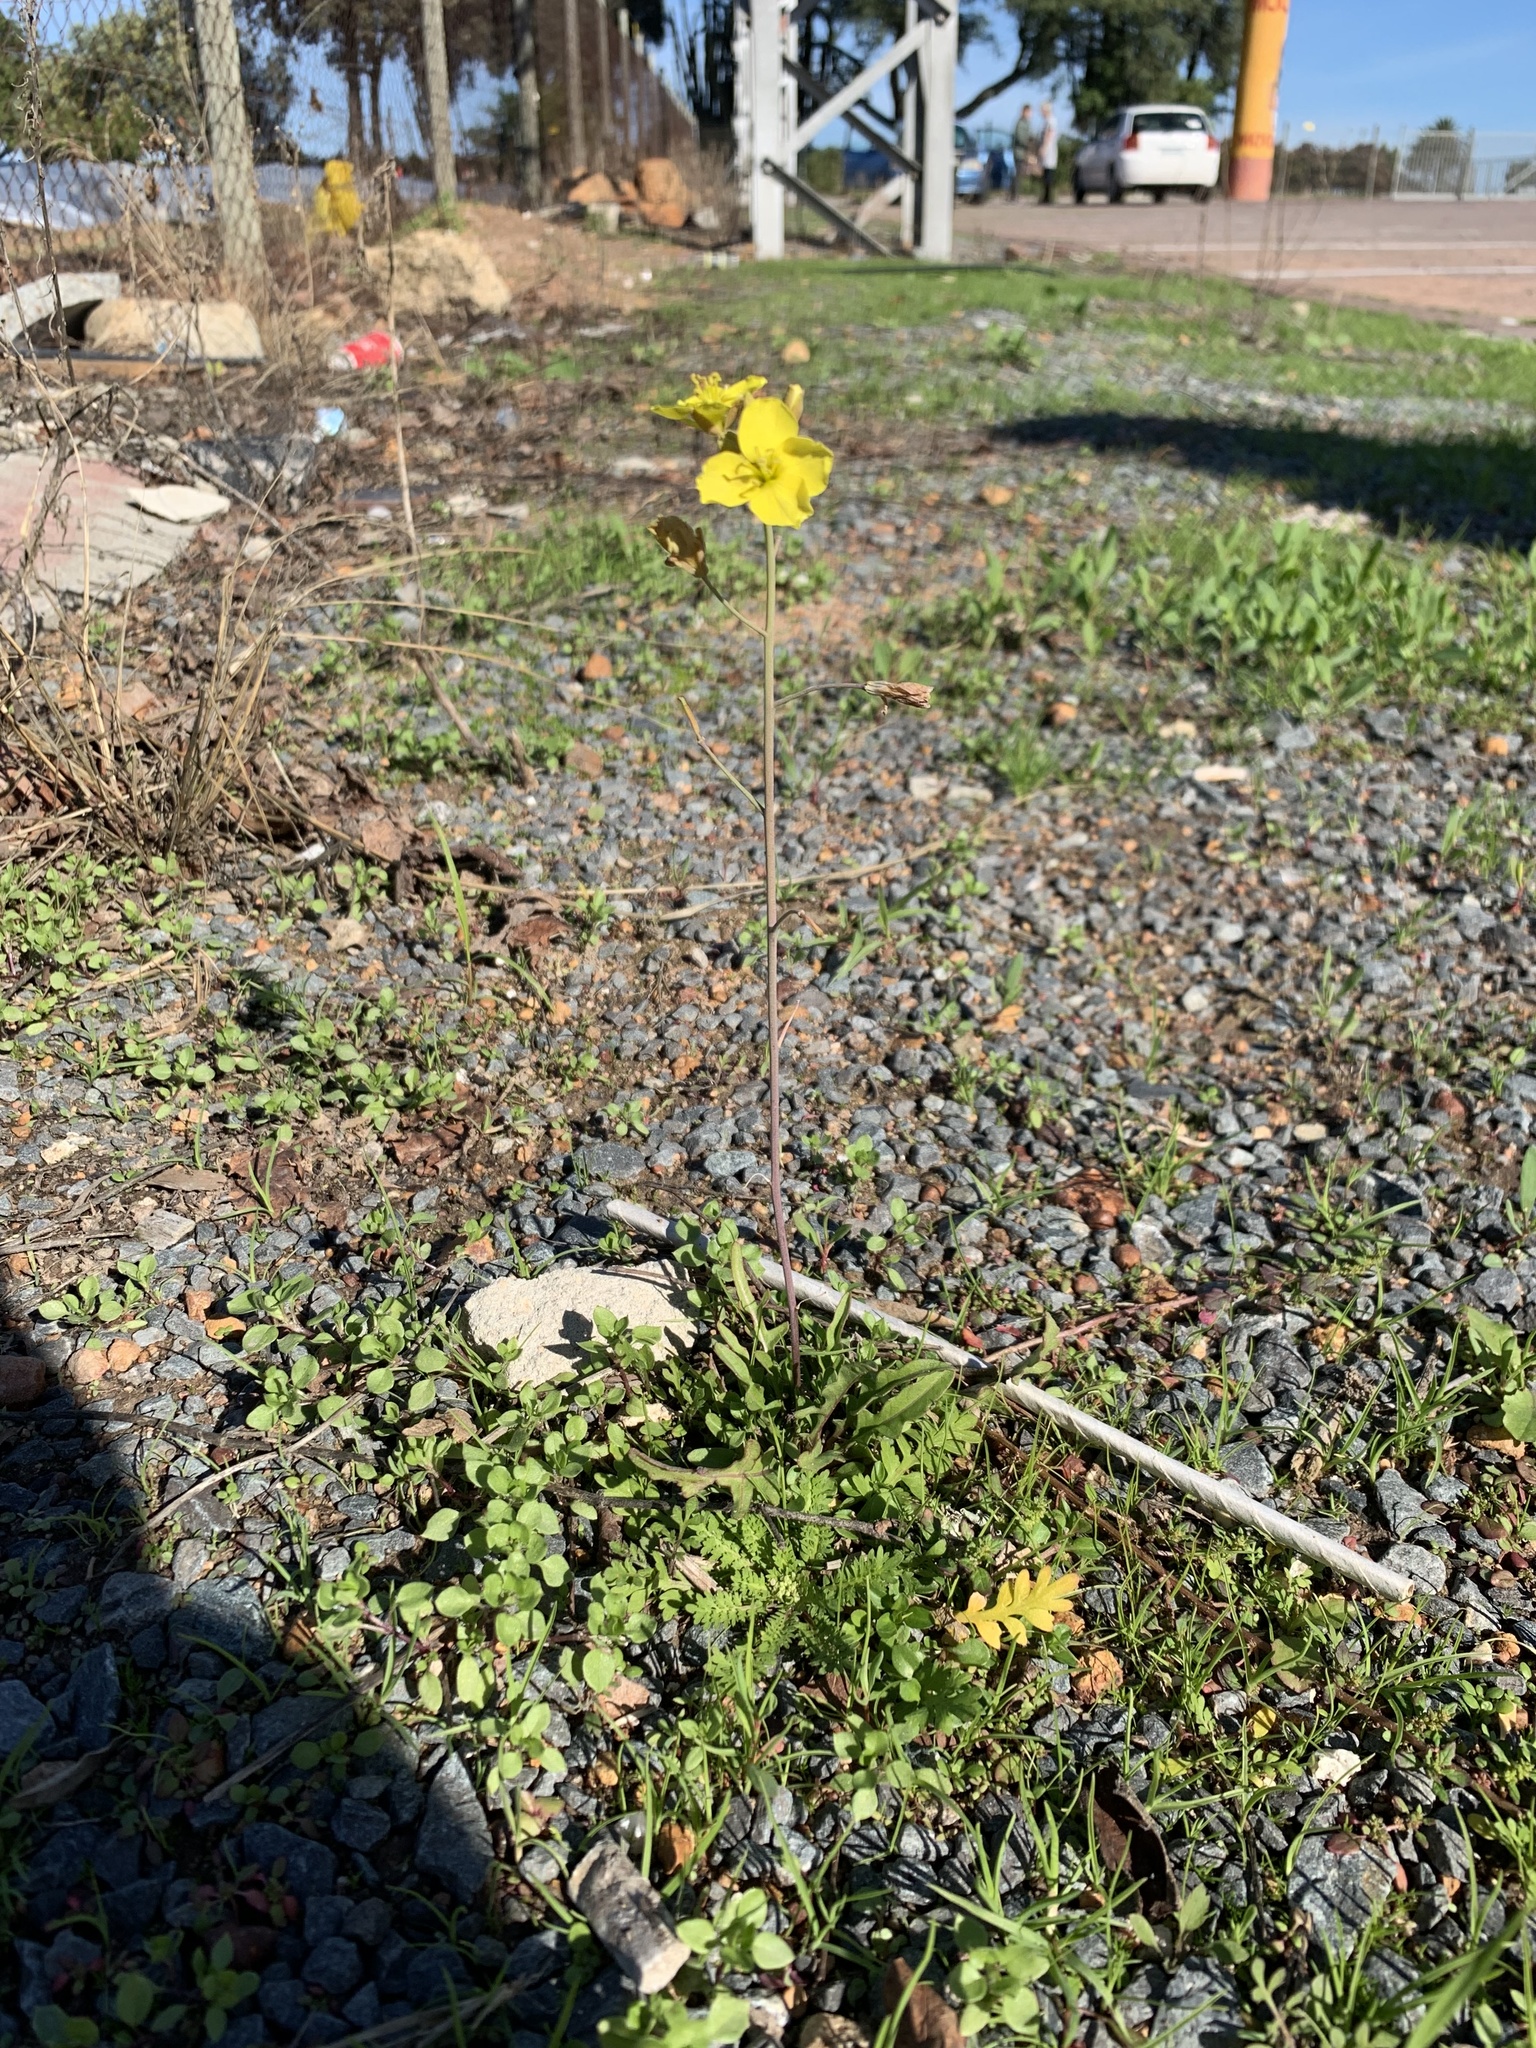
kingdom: Plantae
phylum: Tracheophyta
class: Magnoliopsida
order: Brassicales
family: Brassicaceae
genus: Diplotaxis
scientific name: Diplotaxis muralis
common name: Annual wall-rocket
